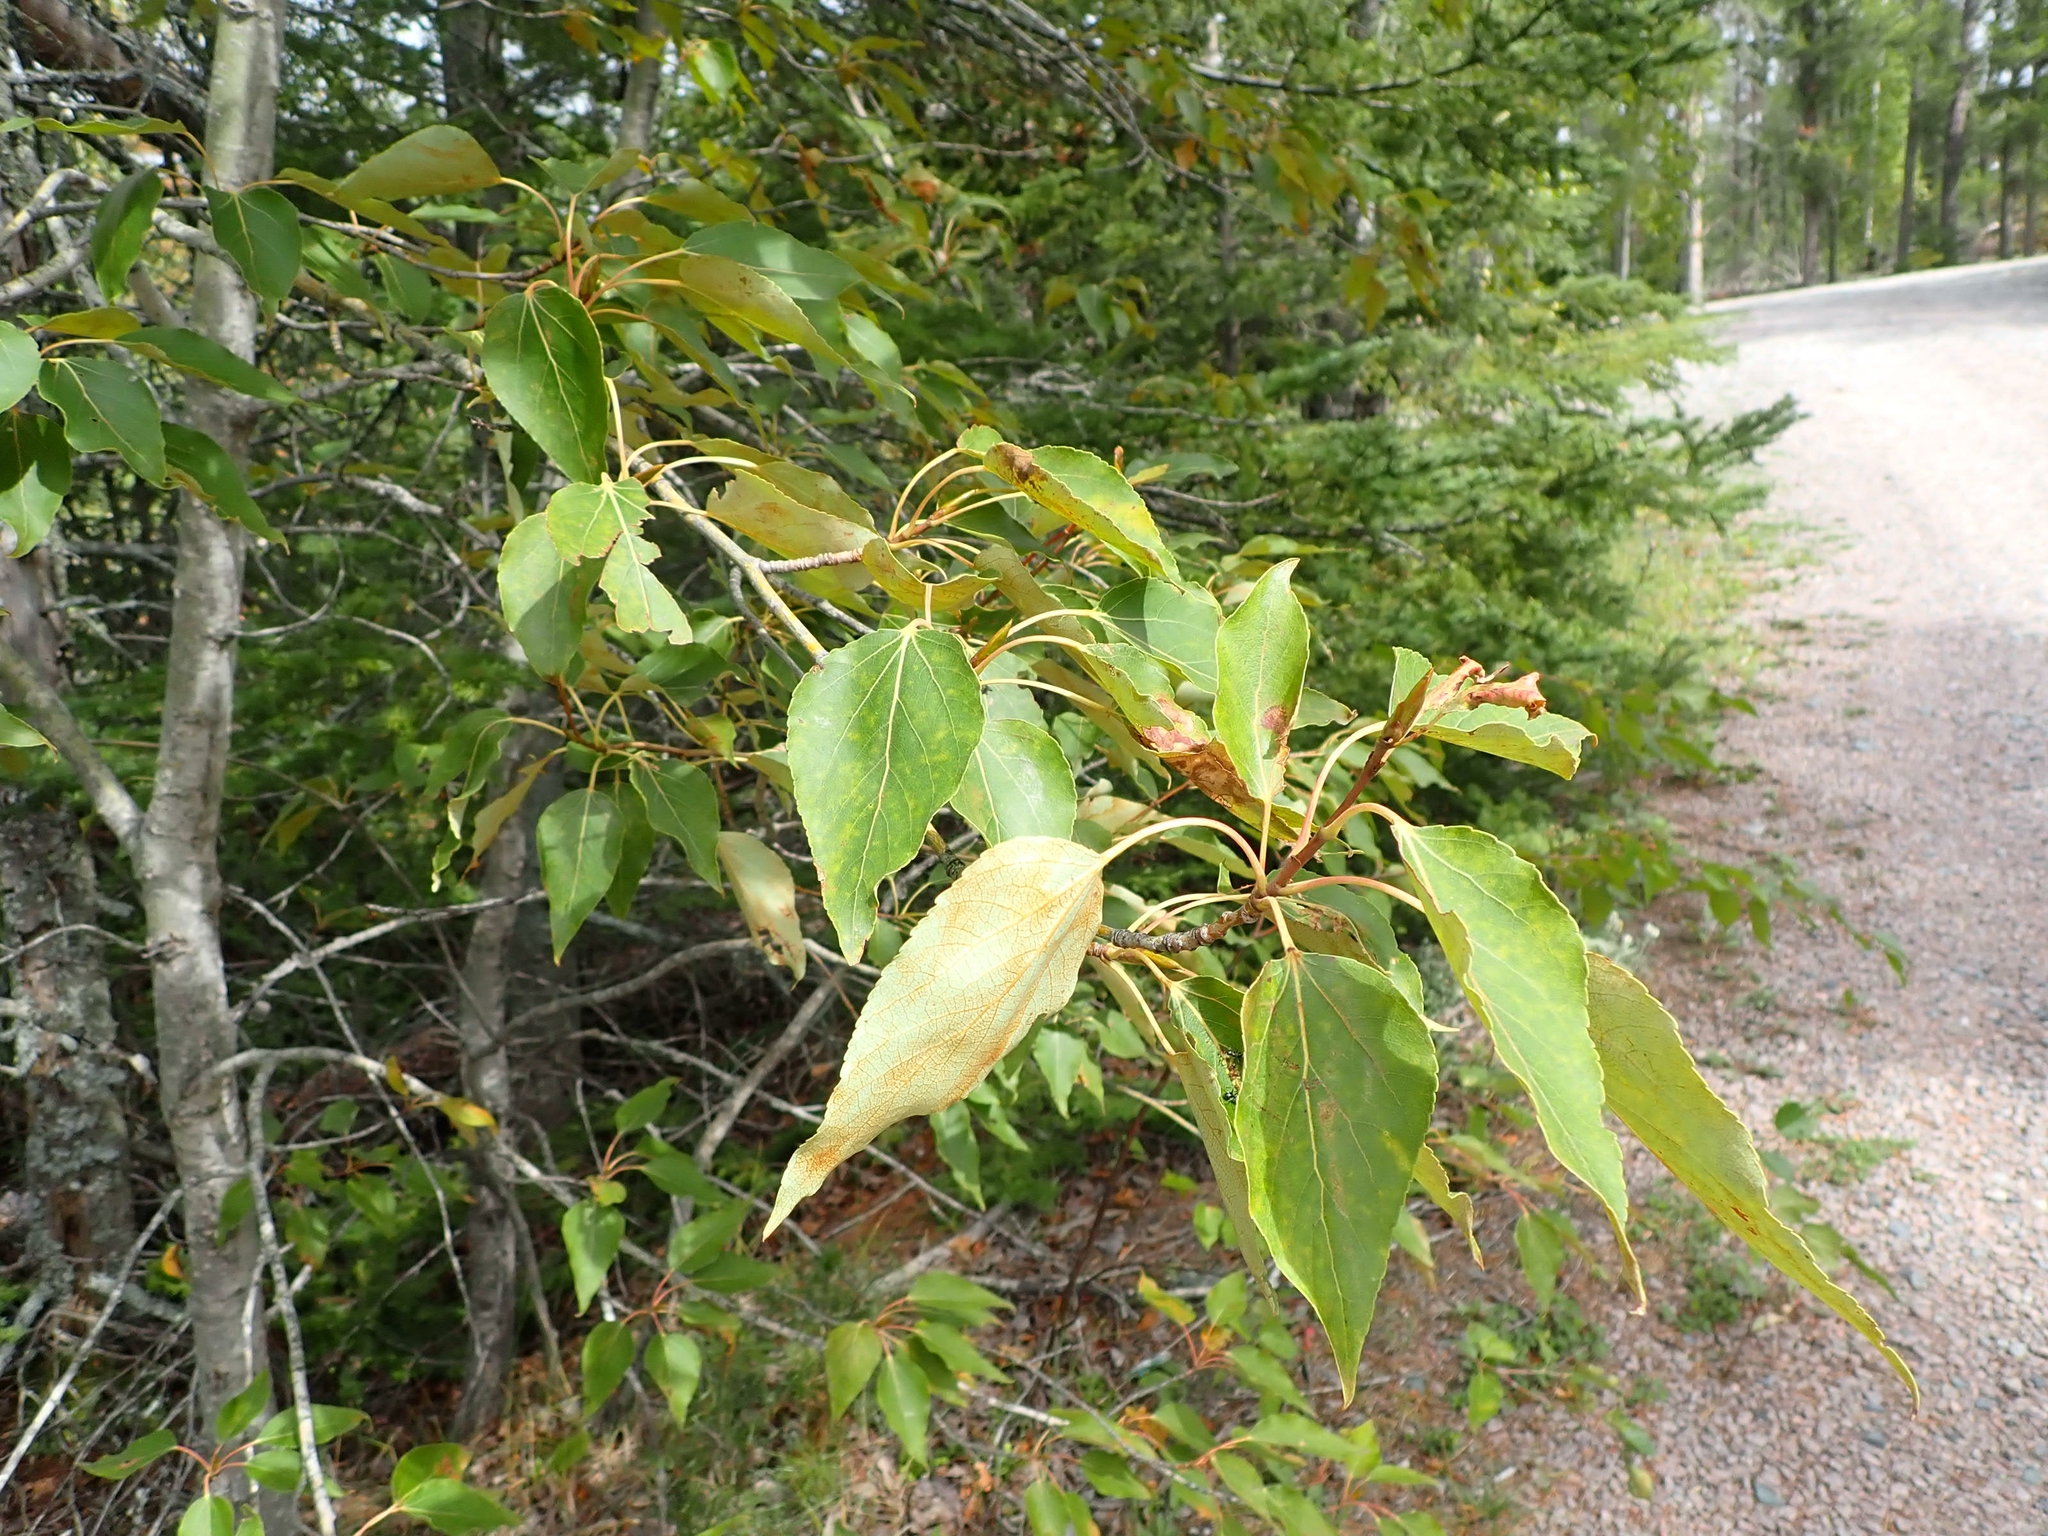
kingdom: Plantae
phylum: Tracheophyta
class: Magnoliopsida
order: Malpighiales
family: Salicaceae
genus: Populus
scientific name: Populus balsamifera
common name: Balsam poplar
